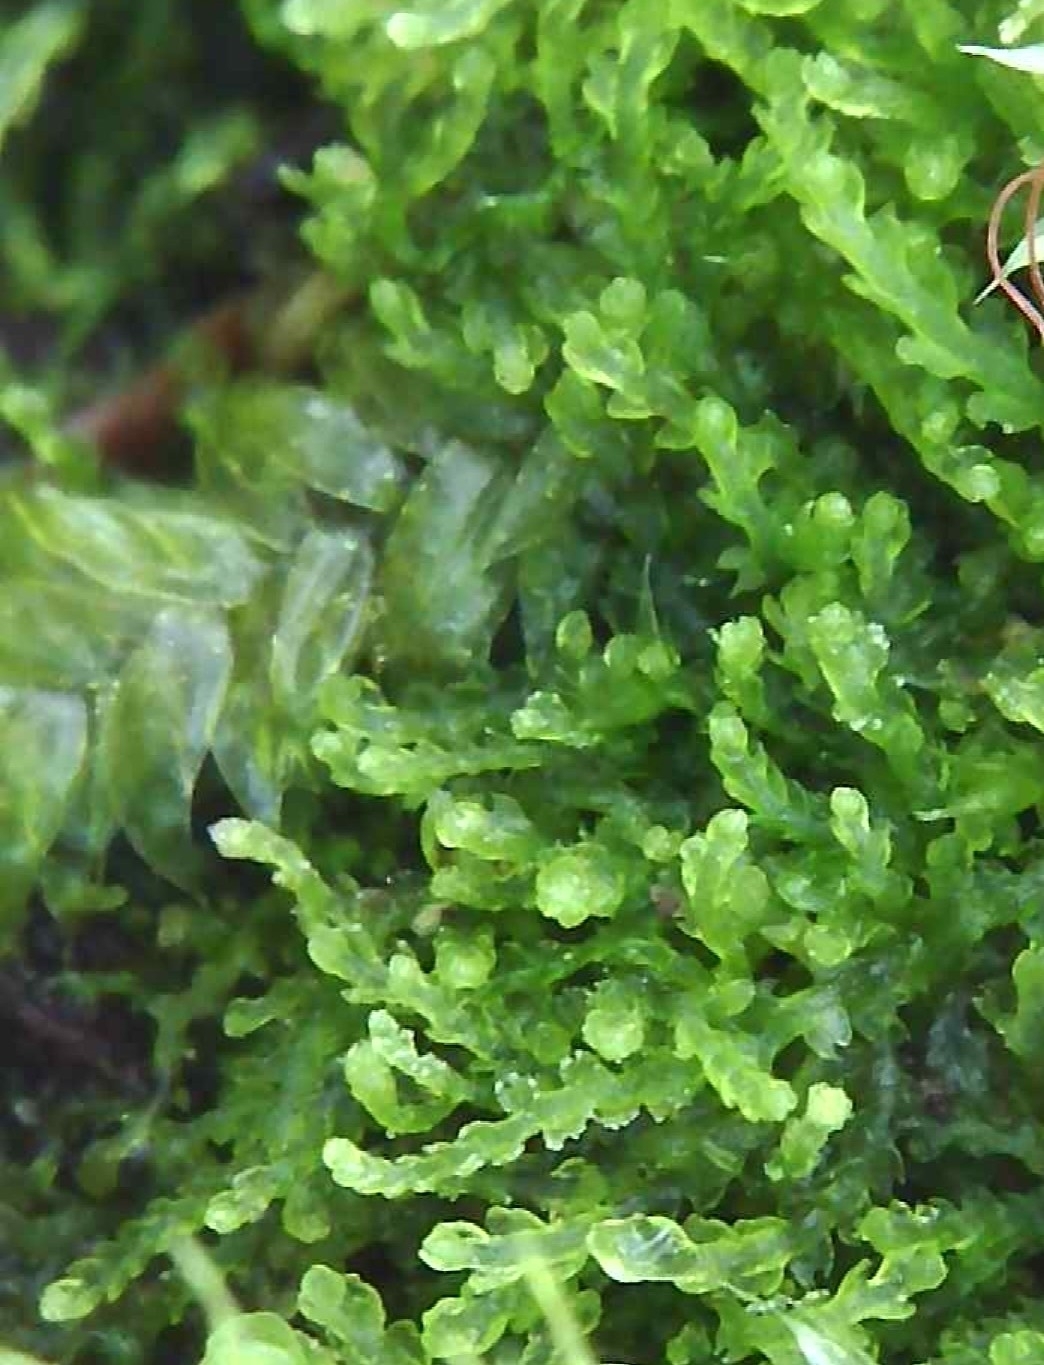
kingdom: Plantae
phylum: Marchantiophyta
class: Jungermanniopsida
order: Jungermanniales
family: Cephaloziaceae
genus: Cephalozia
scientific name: Cephalozia bicuspidata
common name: Two-horned pincerwort
